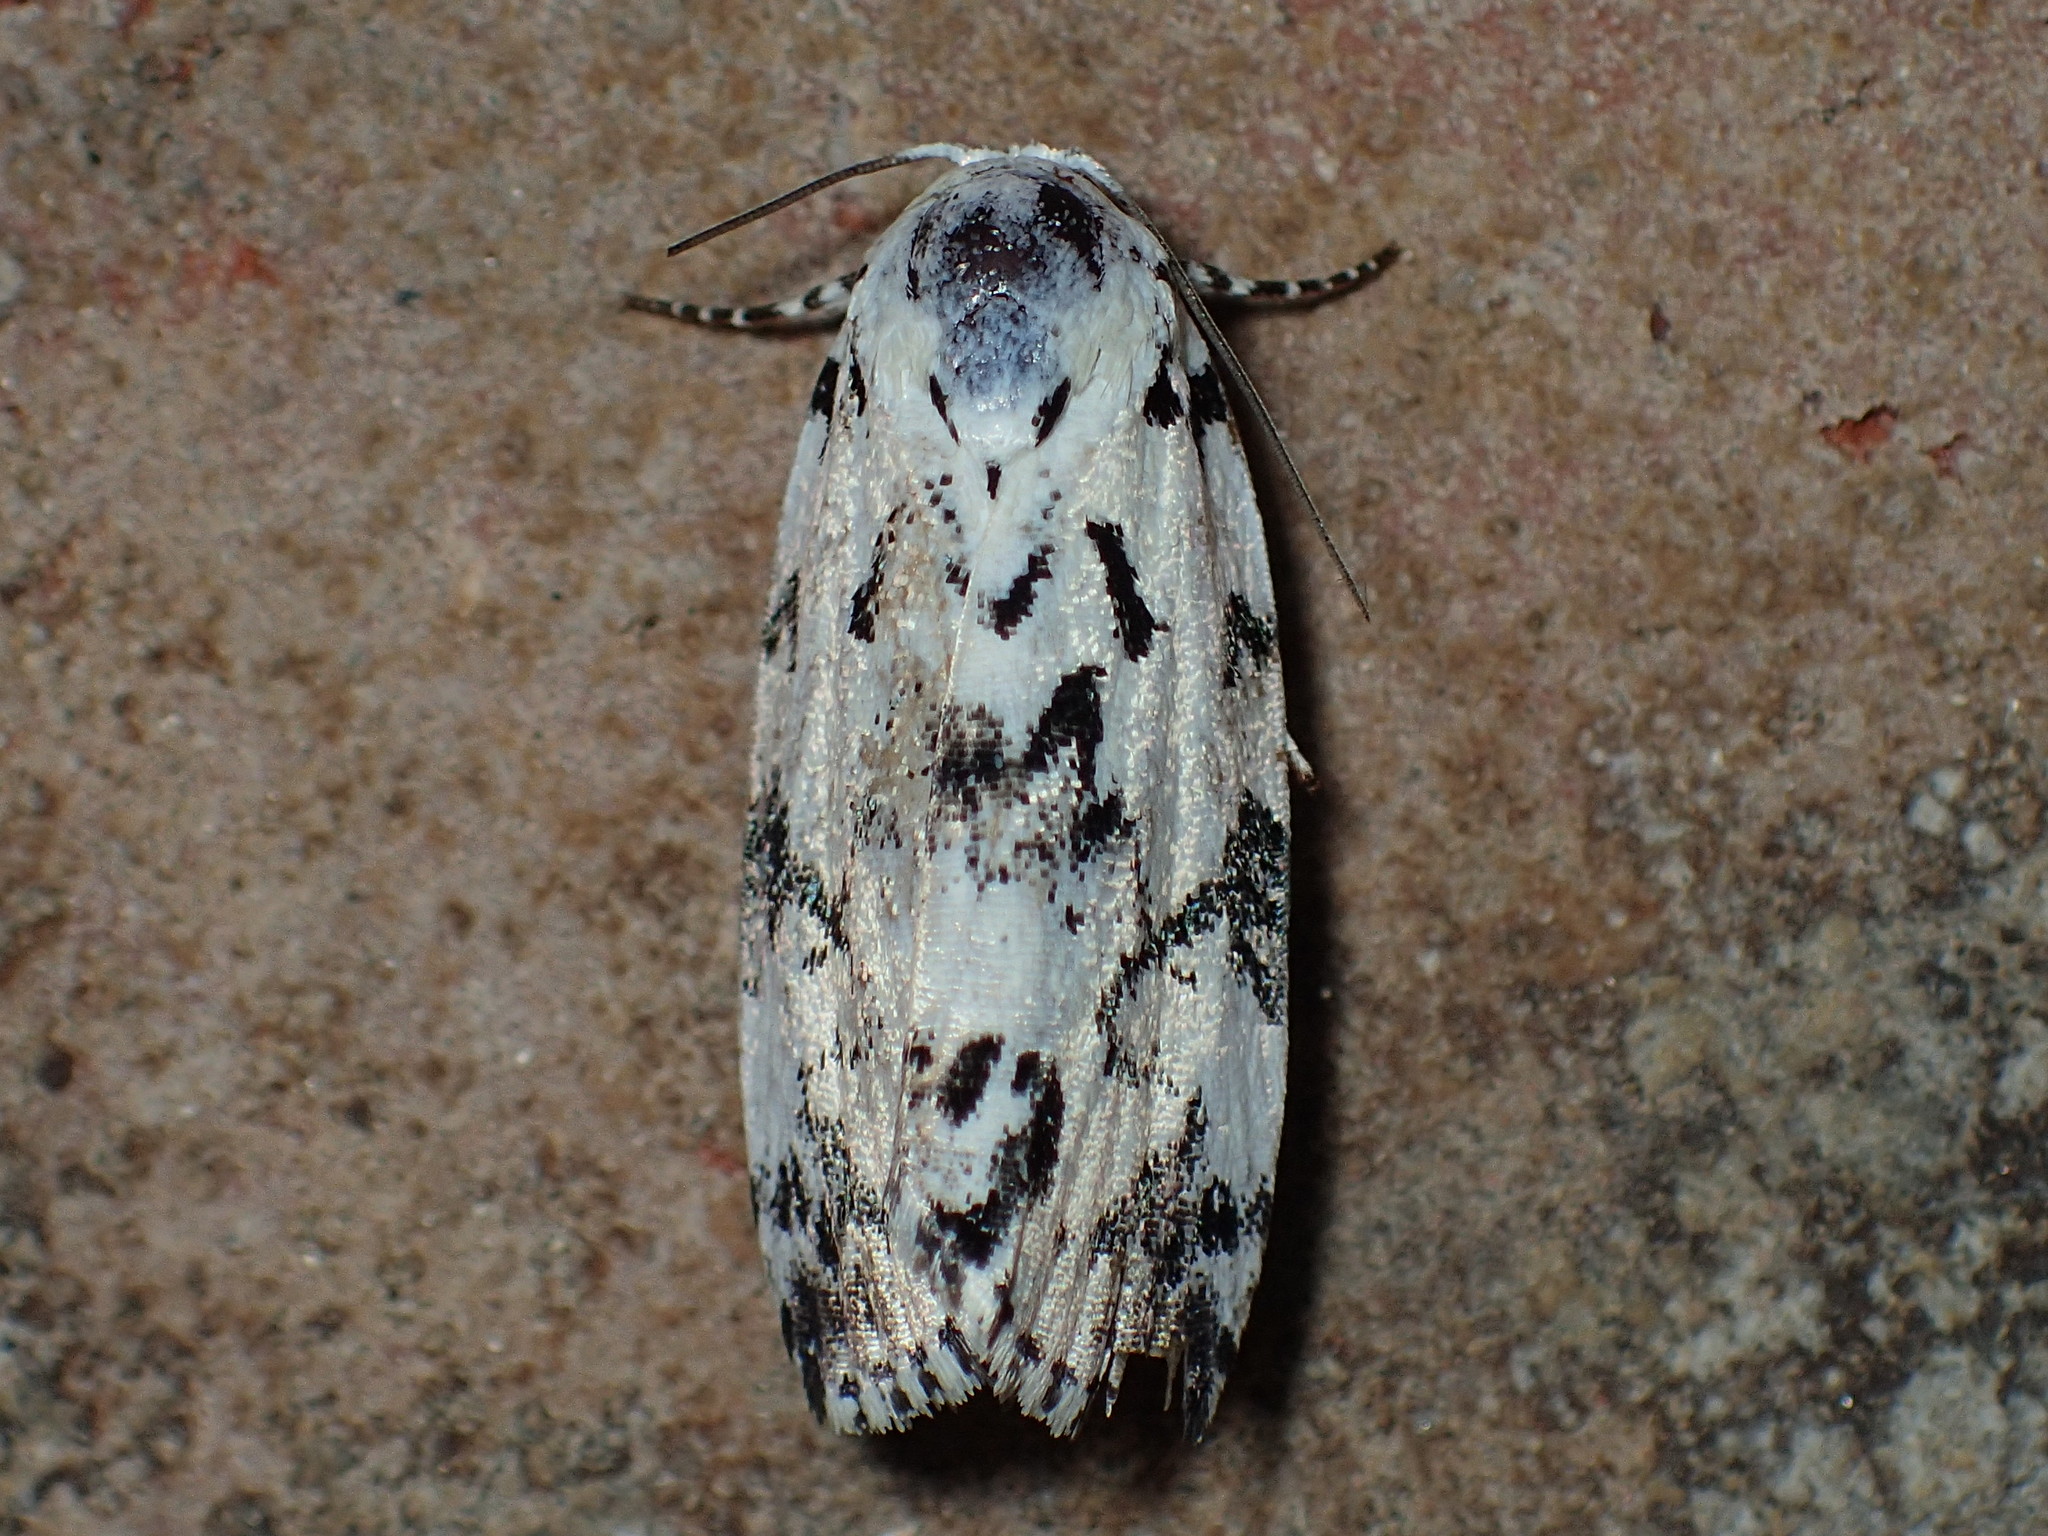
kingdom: Animalia
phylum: Arthropoda
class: Insecta
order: Lepidoptera
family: Noctuidae
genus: Polygrammate
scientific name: Polygrammate hebraeicum
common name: Hebrew moth
